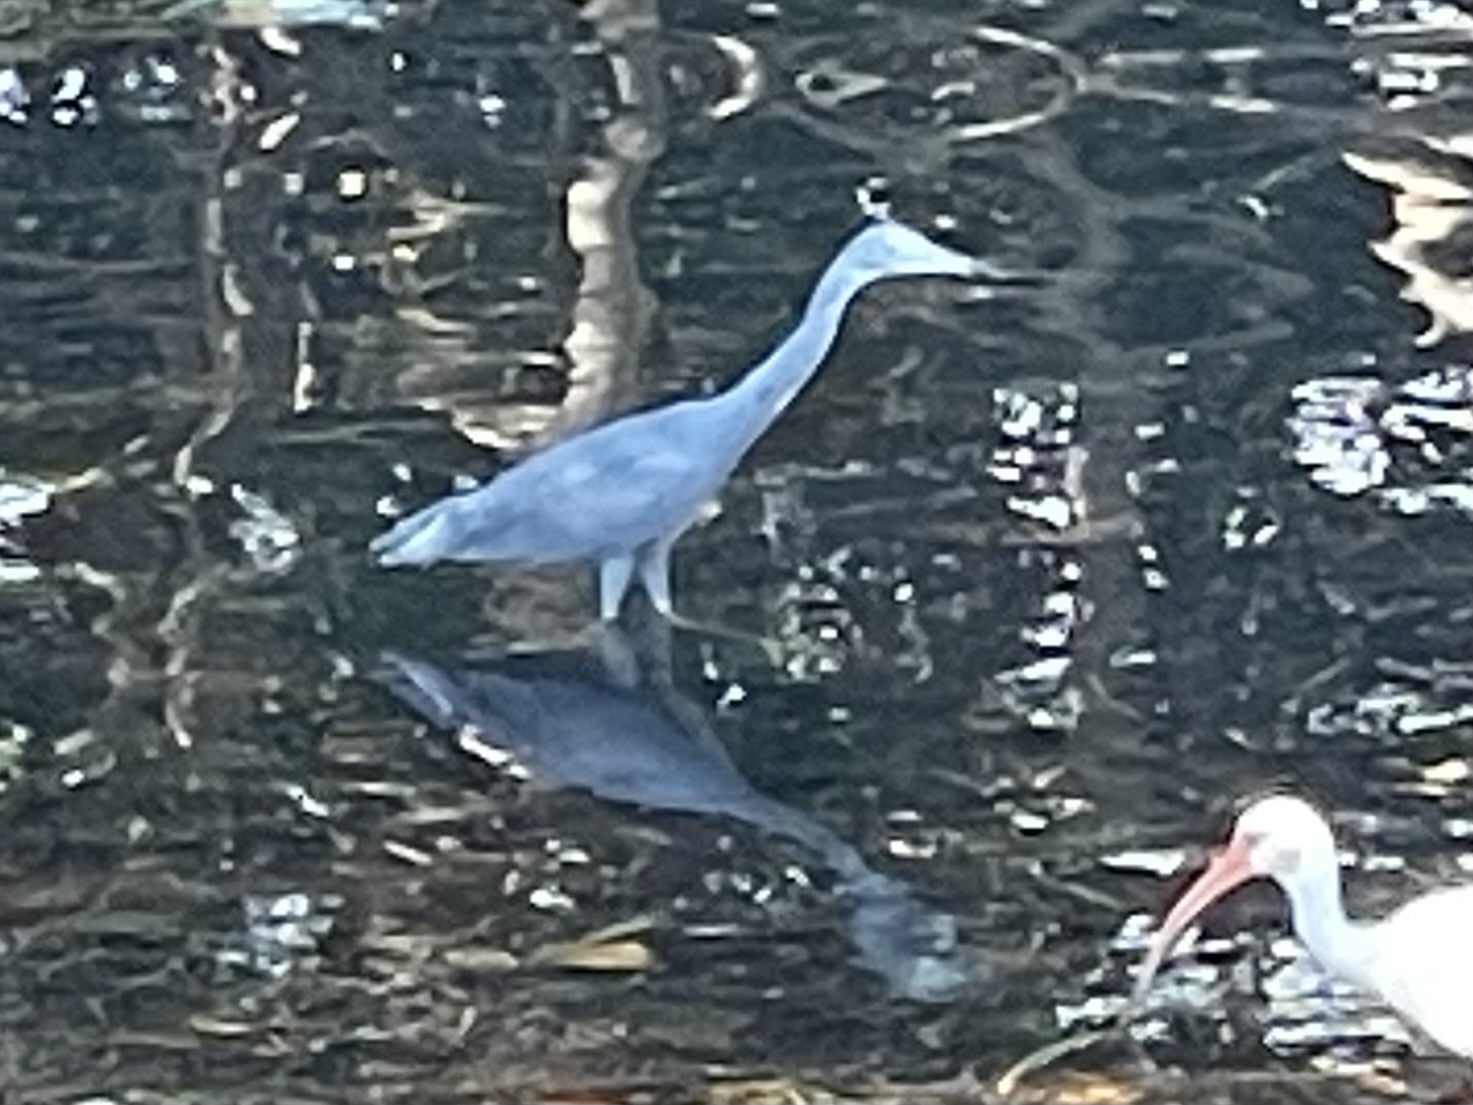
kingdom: Animalia
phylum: Chordata
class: Aves
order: Pelecaniformes
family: Ardeidae
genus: Egretta
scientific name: Egretta caerulea
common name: Little blue heron
